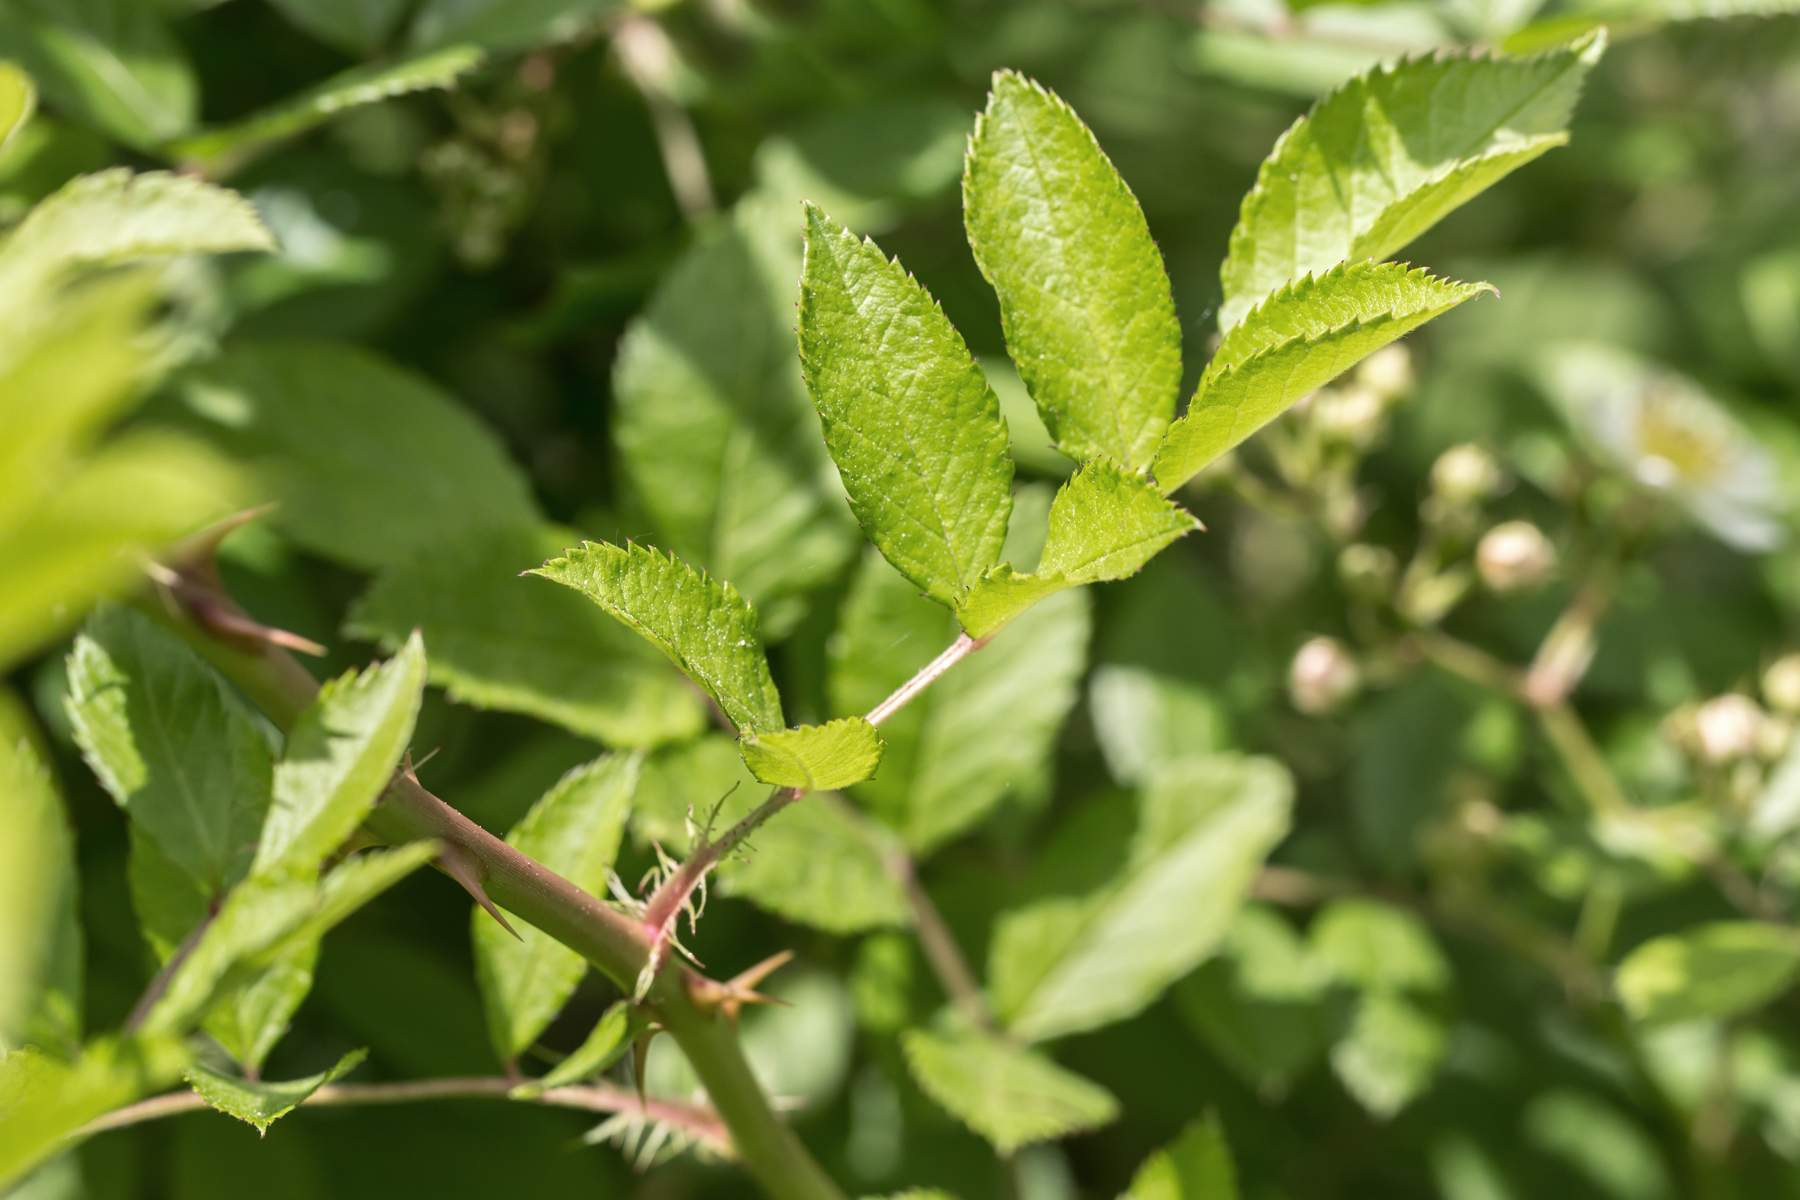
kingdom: Plantae
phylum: Tracheophyta
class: Magnoliopsida
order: Rosales
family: Rosaceae
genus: Rosa
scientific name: Rosa multiflora
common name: Multiflora rose
